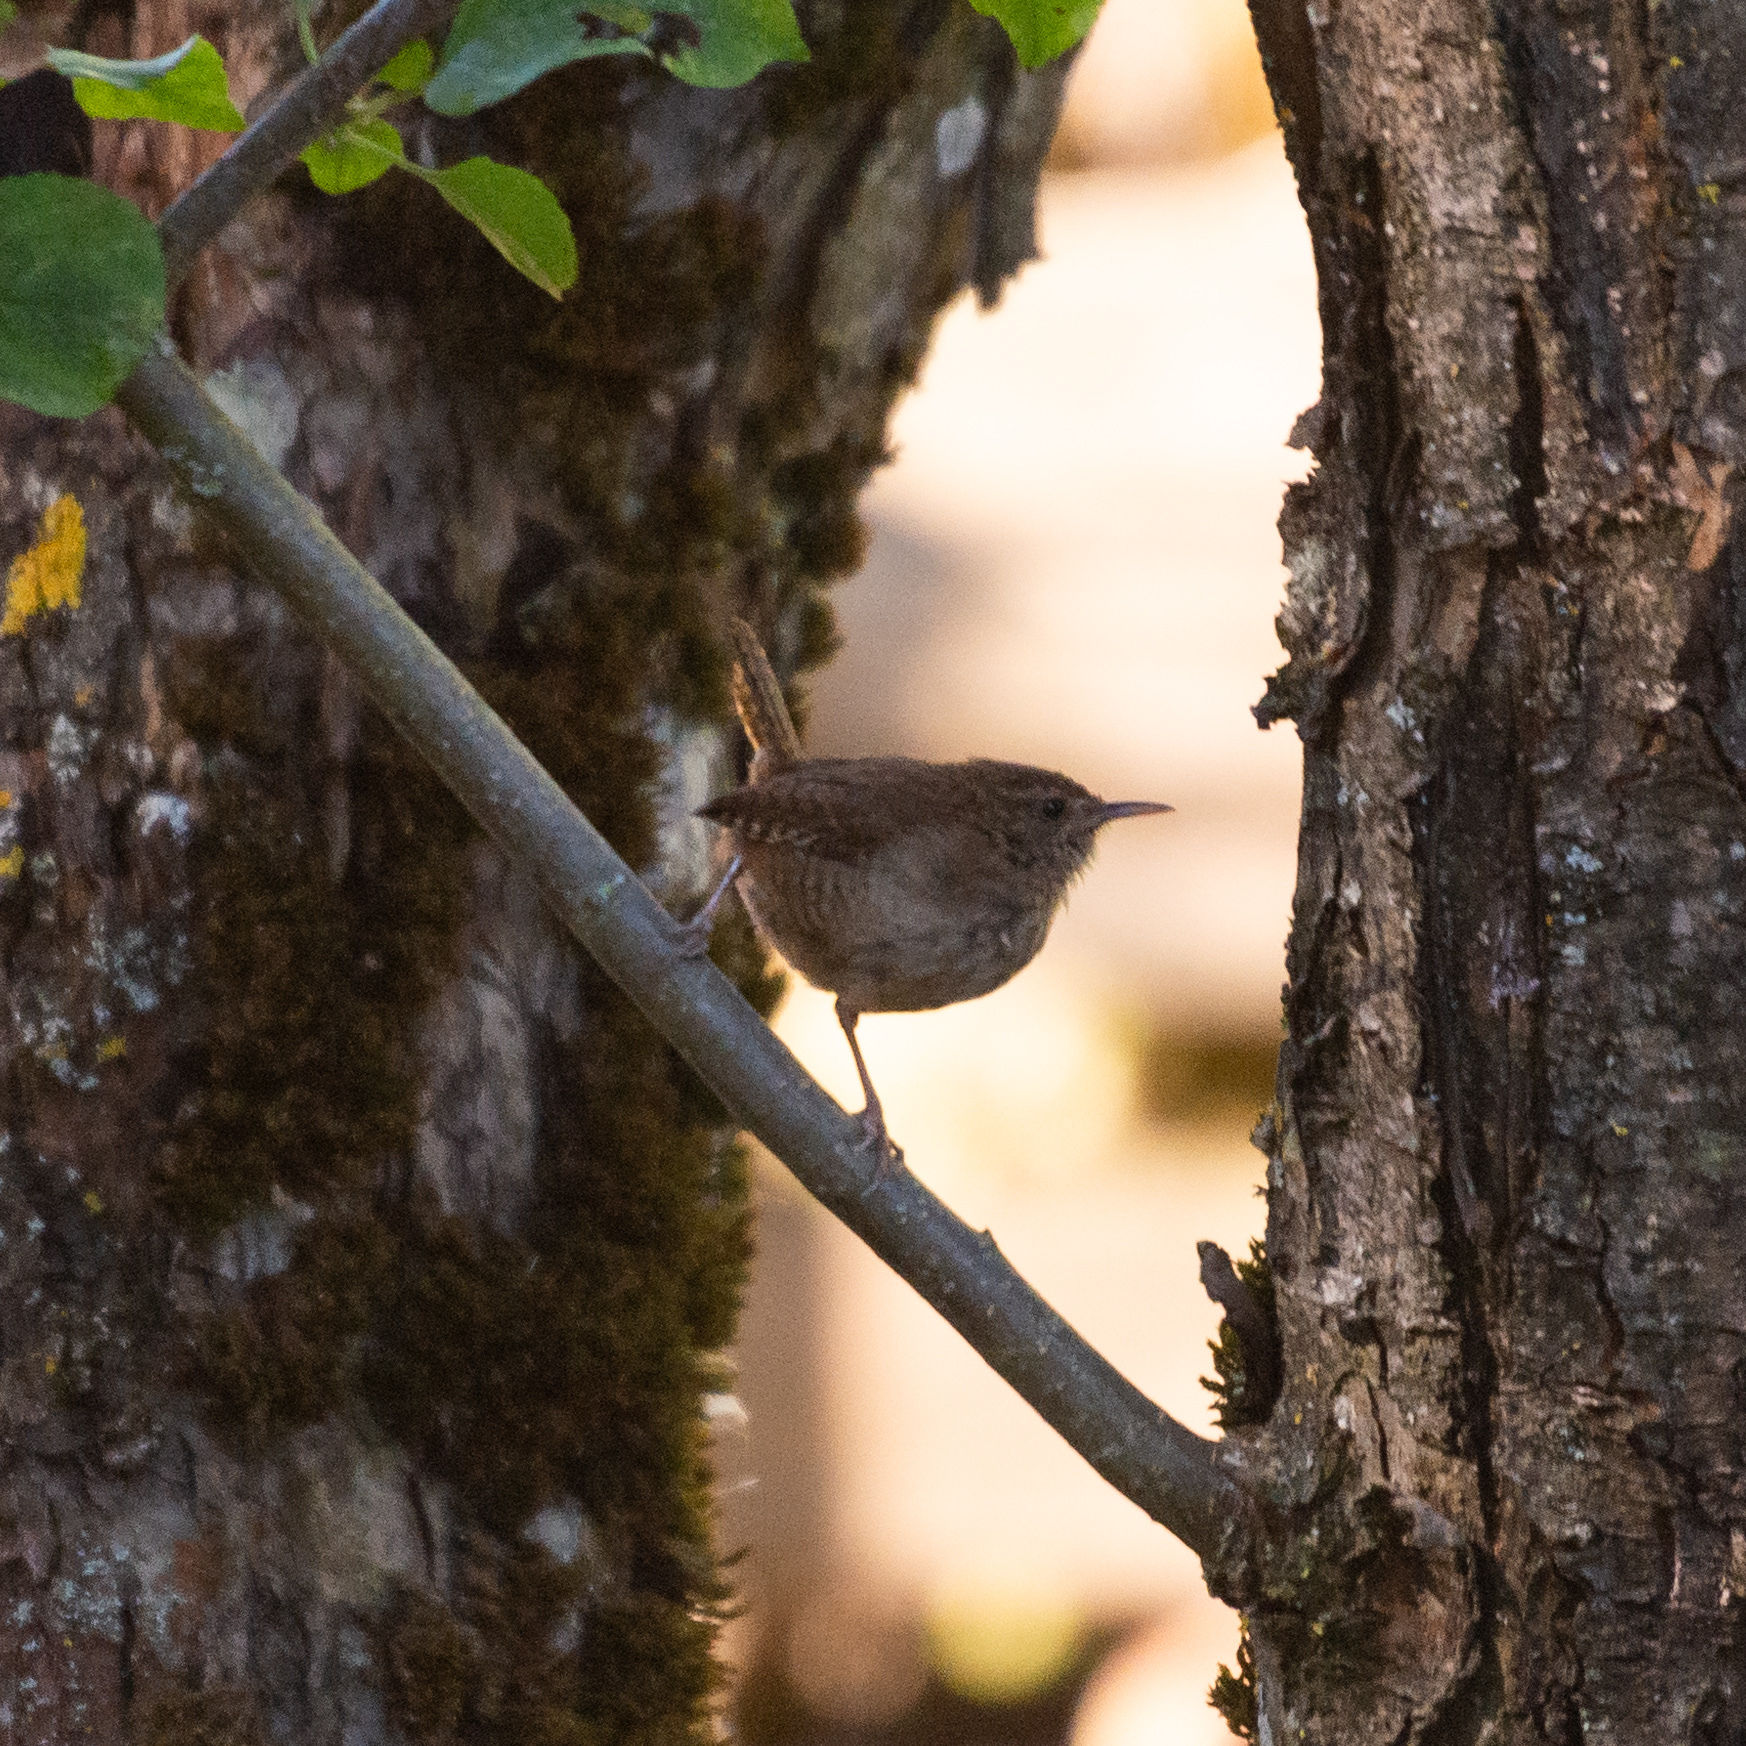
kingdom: Animalia
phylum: Chordata
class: Aves
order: Passeriformes
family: Troglodytidae
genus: Troglodytes
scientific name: Troglodytes troglodytes
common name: Eurasian wren
